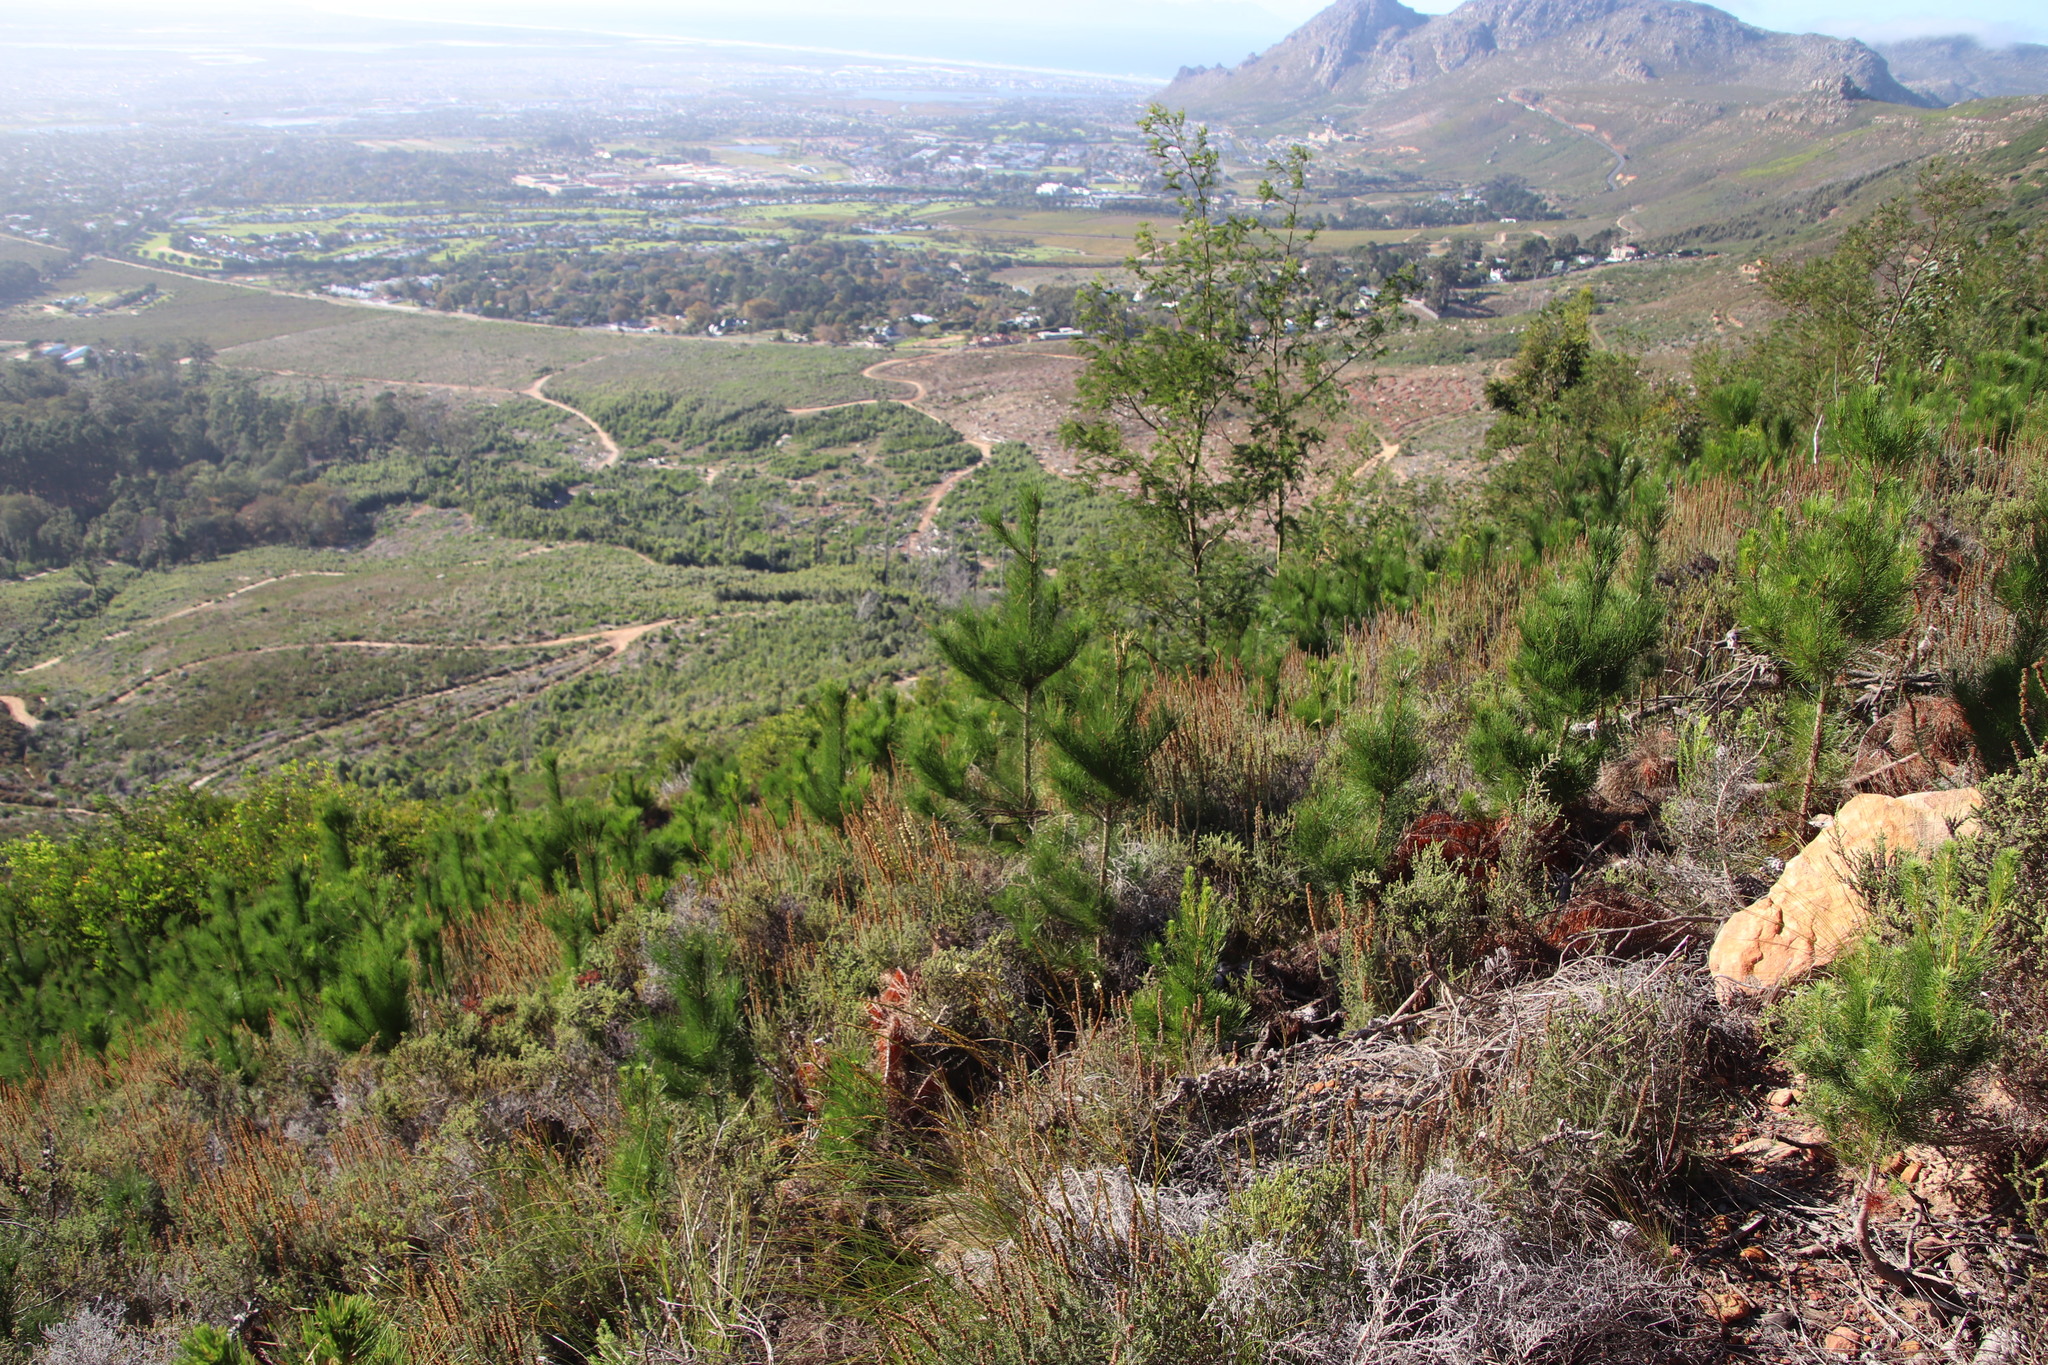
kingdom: Plantae
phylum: Tracheophyta
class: Pinopsida
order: Pinales
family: Pinaceae
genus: Pinus
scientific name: Pinus radiata
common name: Monterey pine
